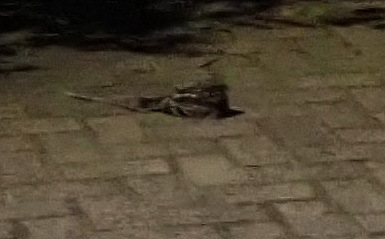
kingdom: Animalia
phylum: Chordata
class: Aves
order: Caprimulgiformes
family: Caprimulgidae
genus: Caprimulgus
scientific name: Caprimulgus pectoralis
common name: Fiery-necked nightjar
